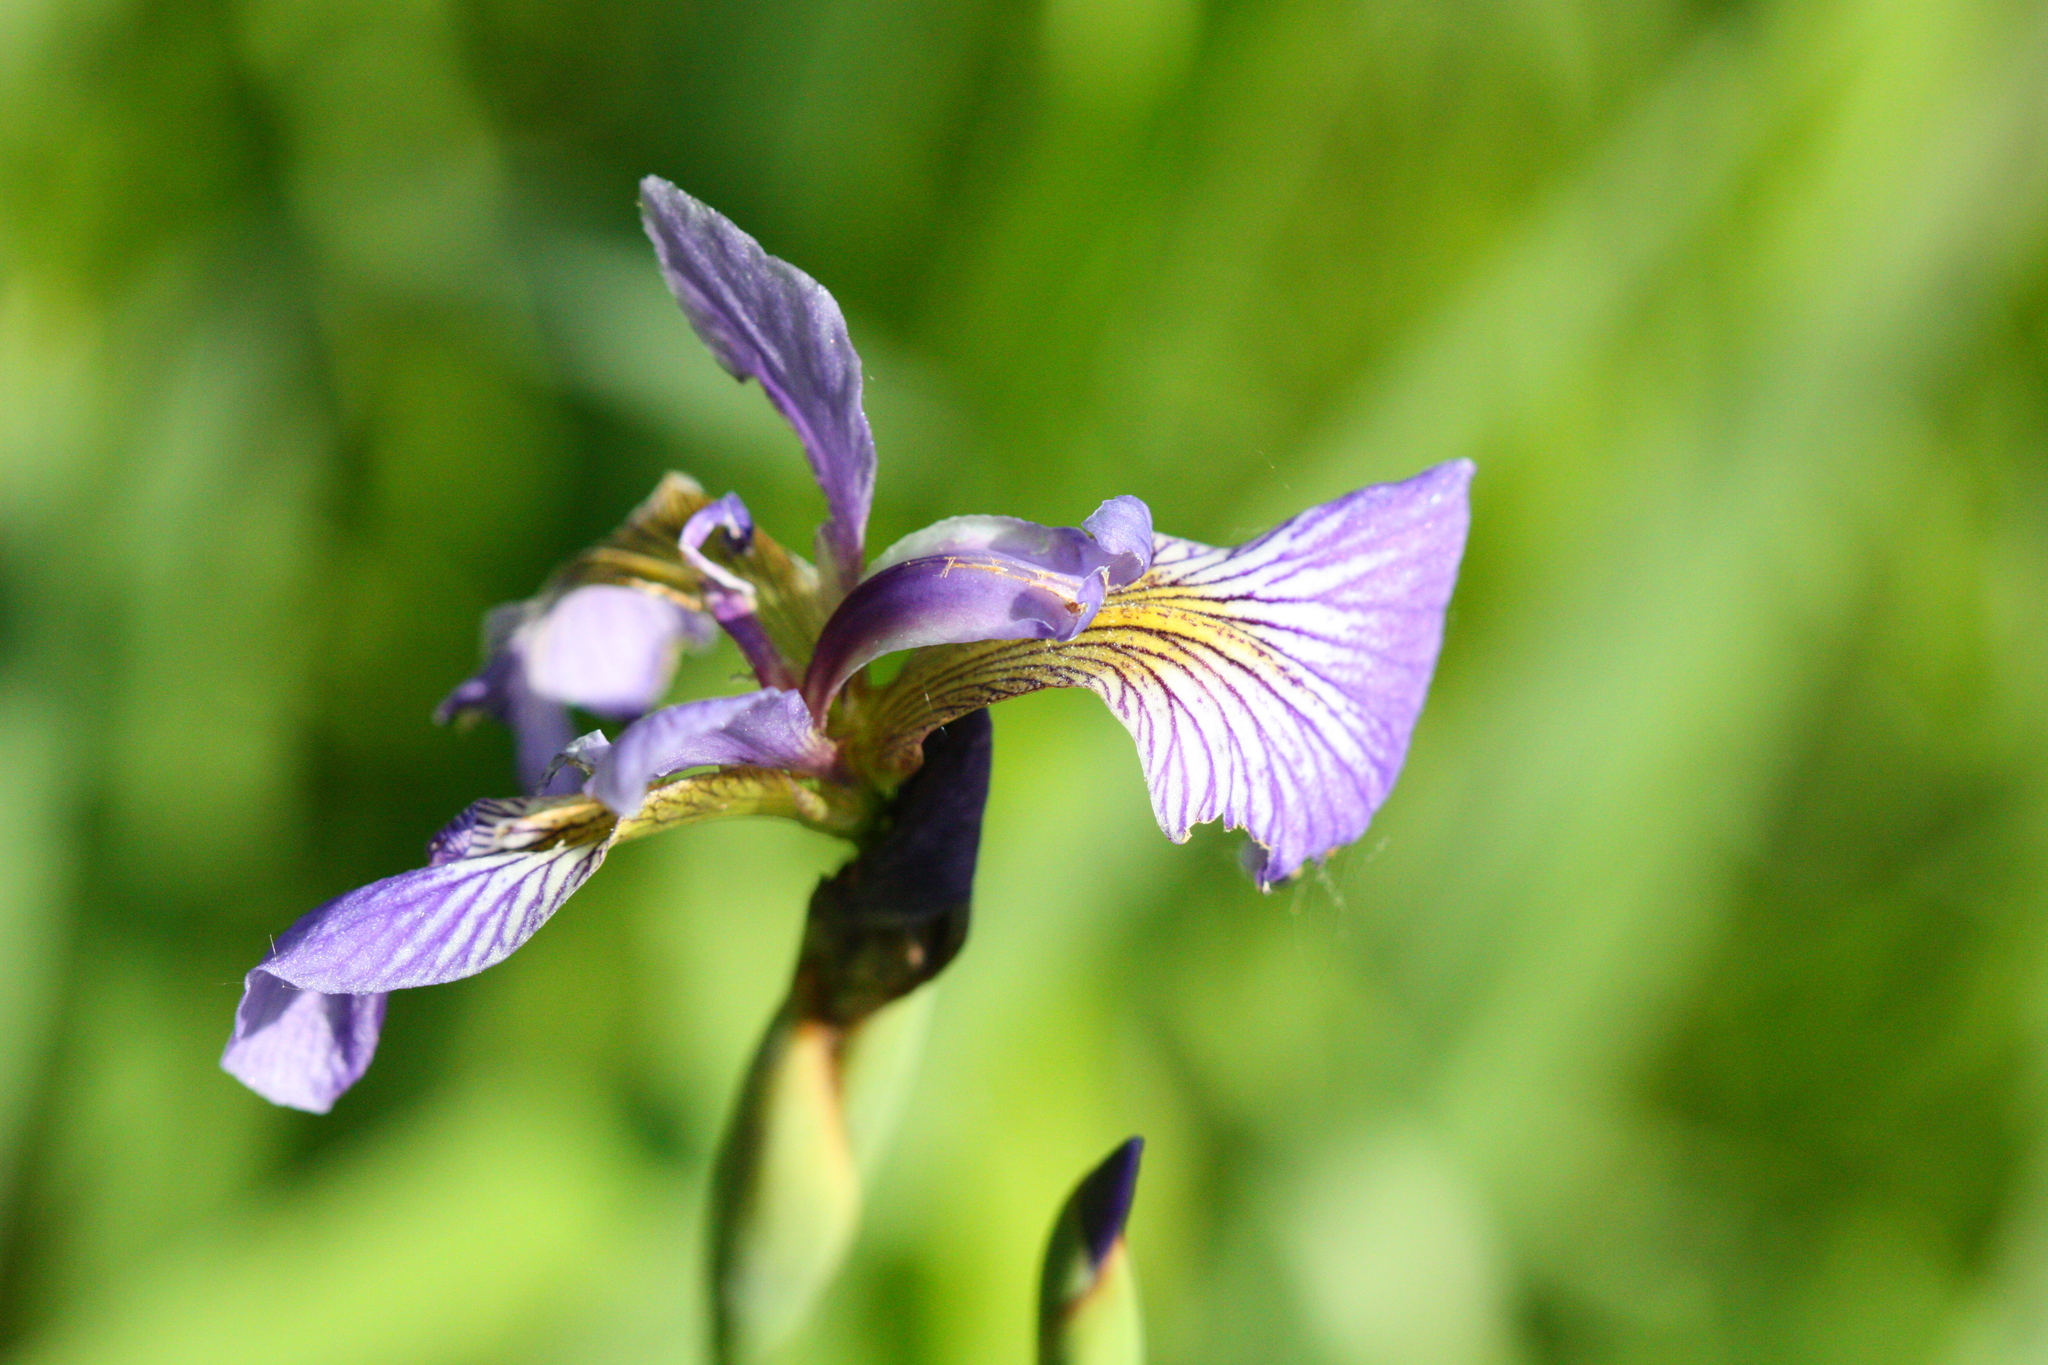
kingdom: Plantae
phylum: Tracheophyta
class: Liliopsida
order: Asparagales
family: Iridaceae
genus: Iris
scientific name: Iris versicolor
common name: Purple iris
